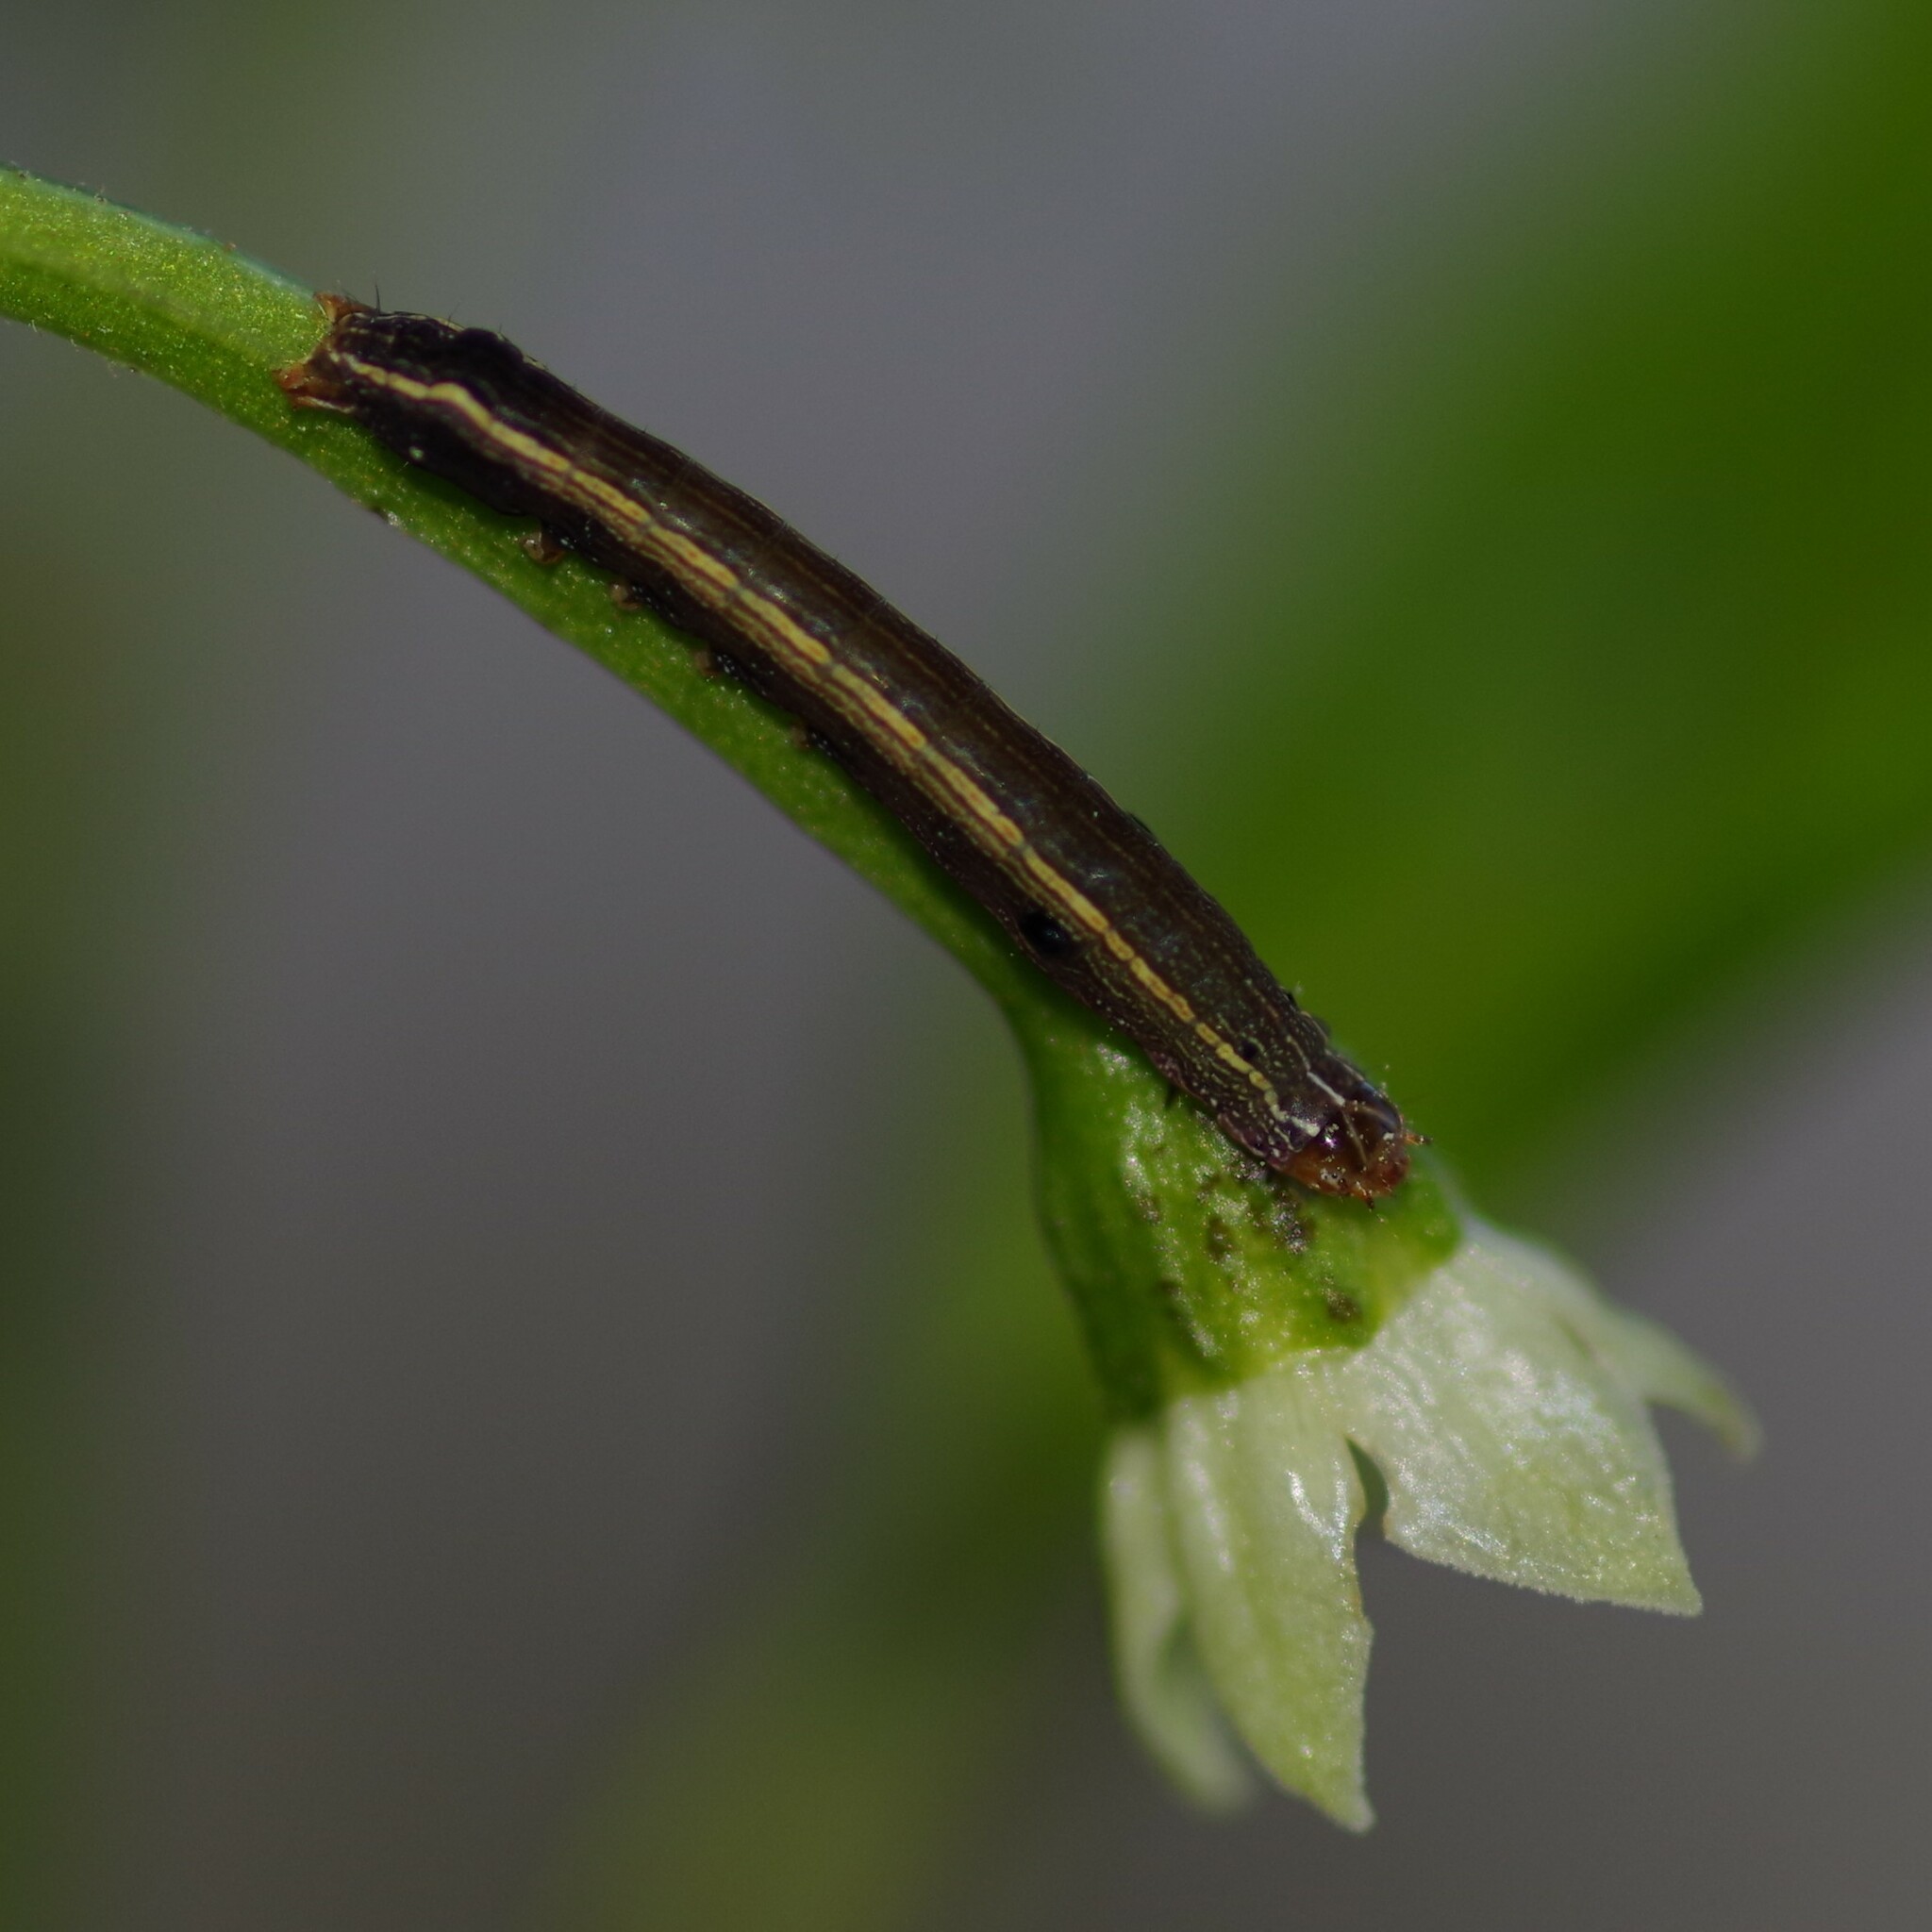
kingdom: Animalia
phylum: Arthropoda
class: Insecta
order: Lepidoptera
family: Noctuidae
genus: Spodoptera
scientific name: Spodoptera ornithogalli
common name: Yellow-striped armyworm
